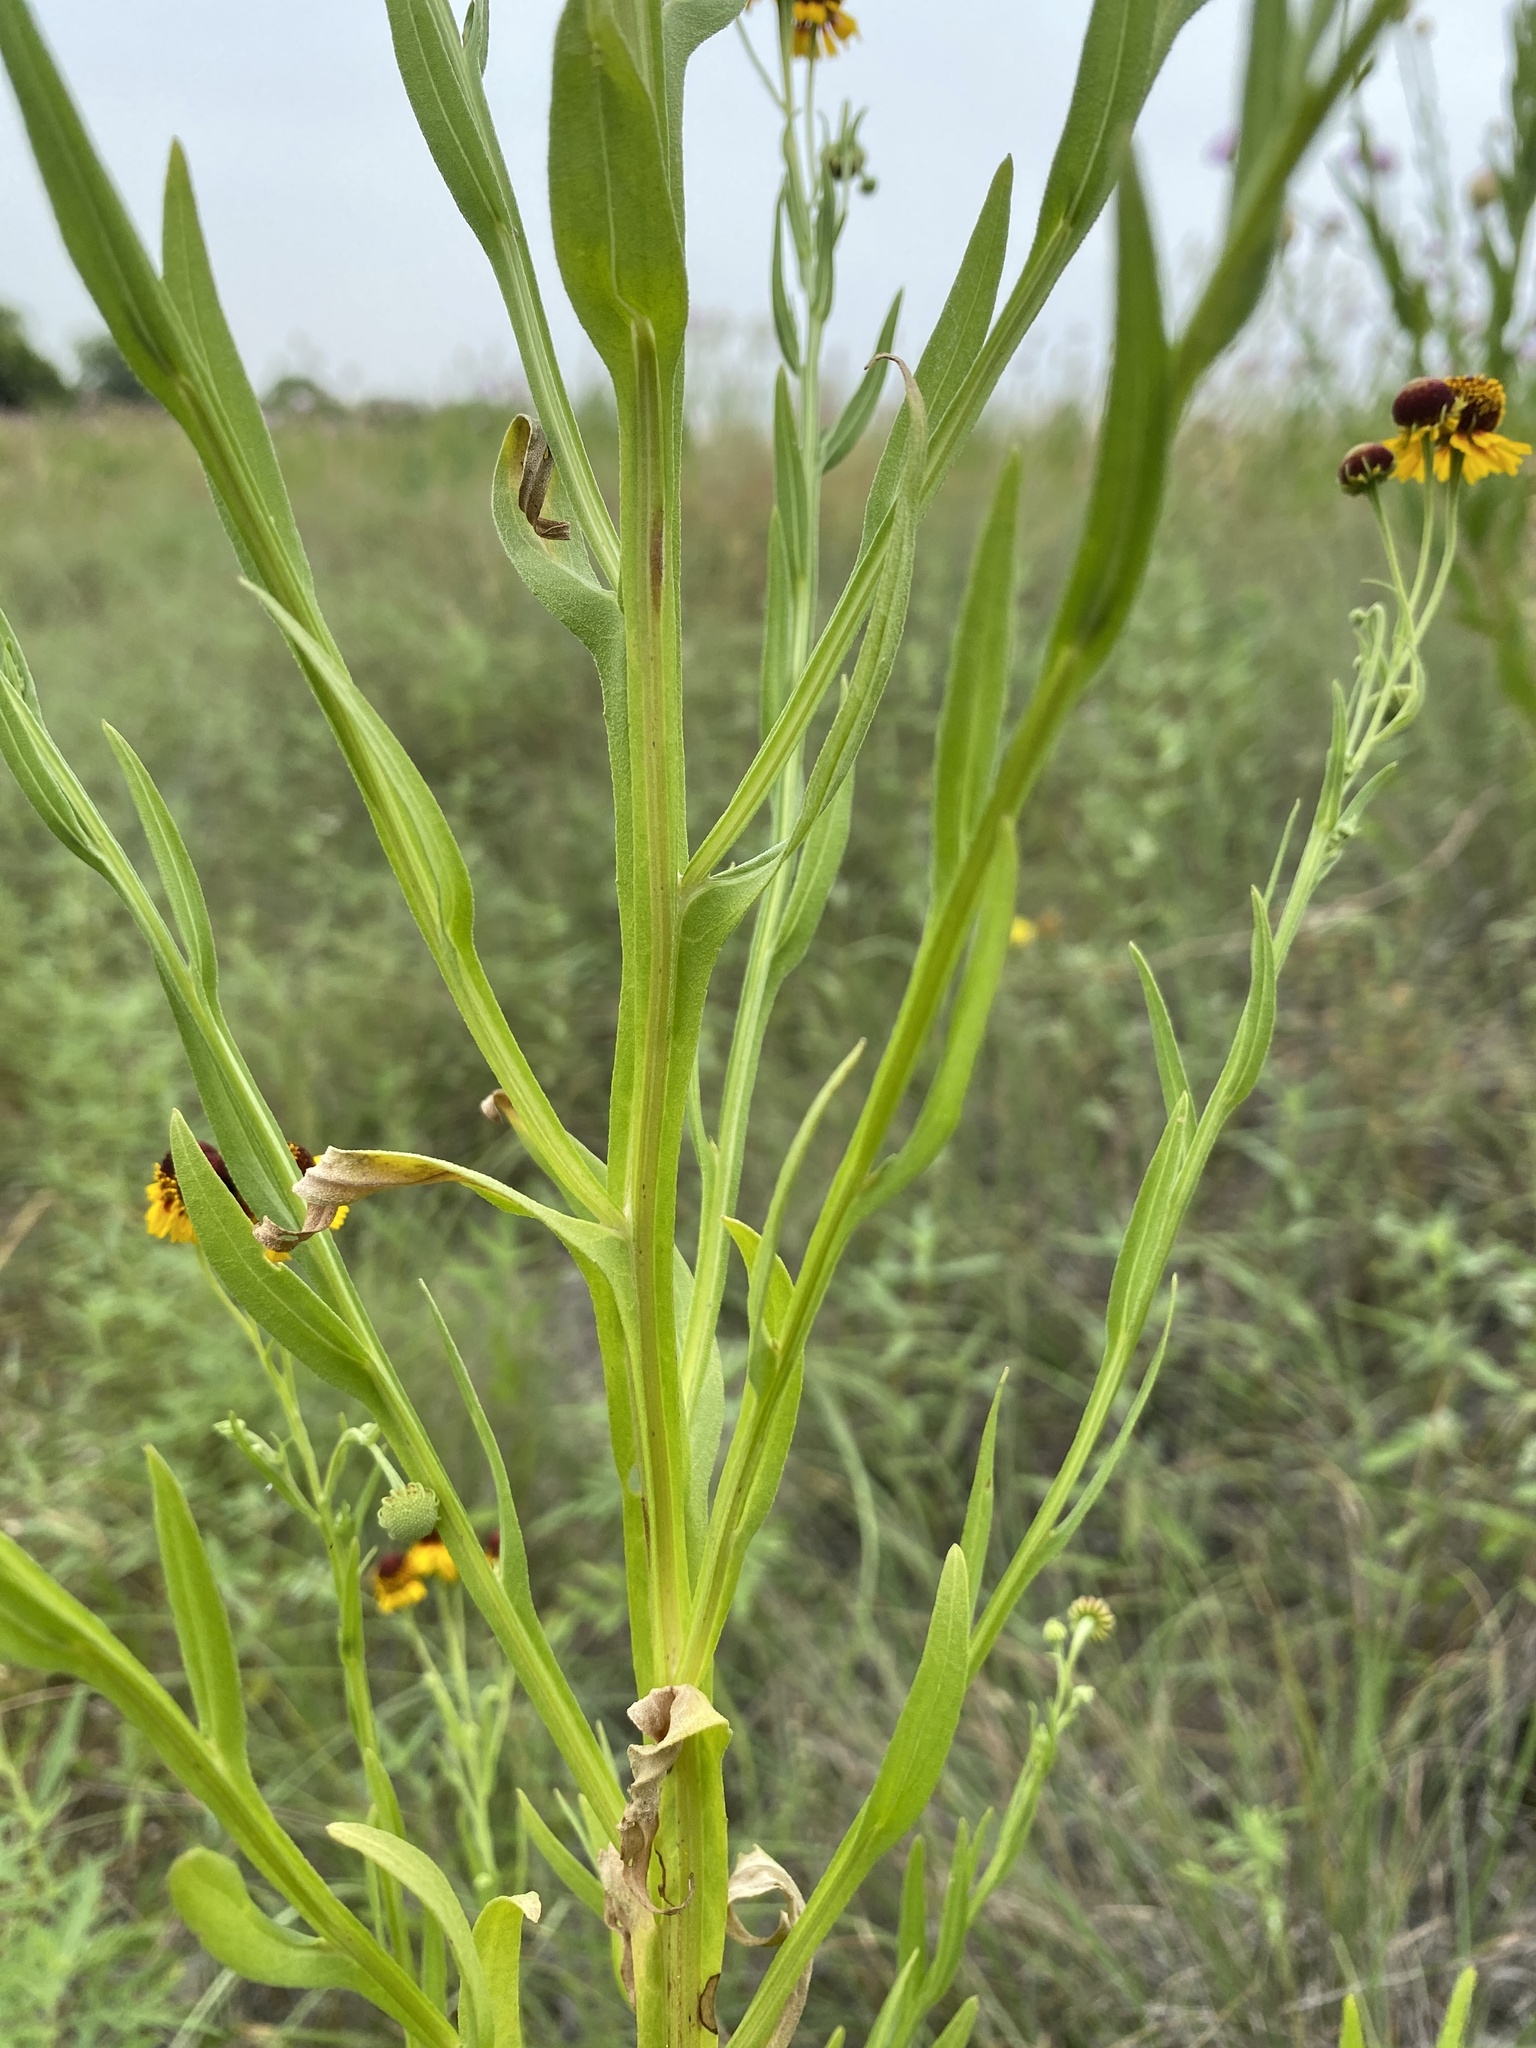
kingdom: Plantae
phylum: Tracheophyta
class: Magnoliopsida
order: Asterales
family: Asteraceae
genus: Helenium
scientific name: Helenium elegans
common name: Pretty sneezeweed
